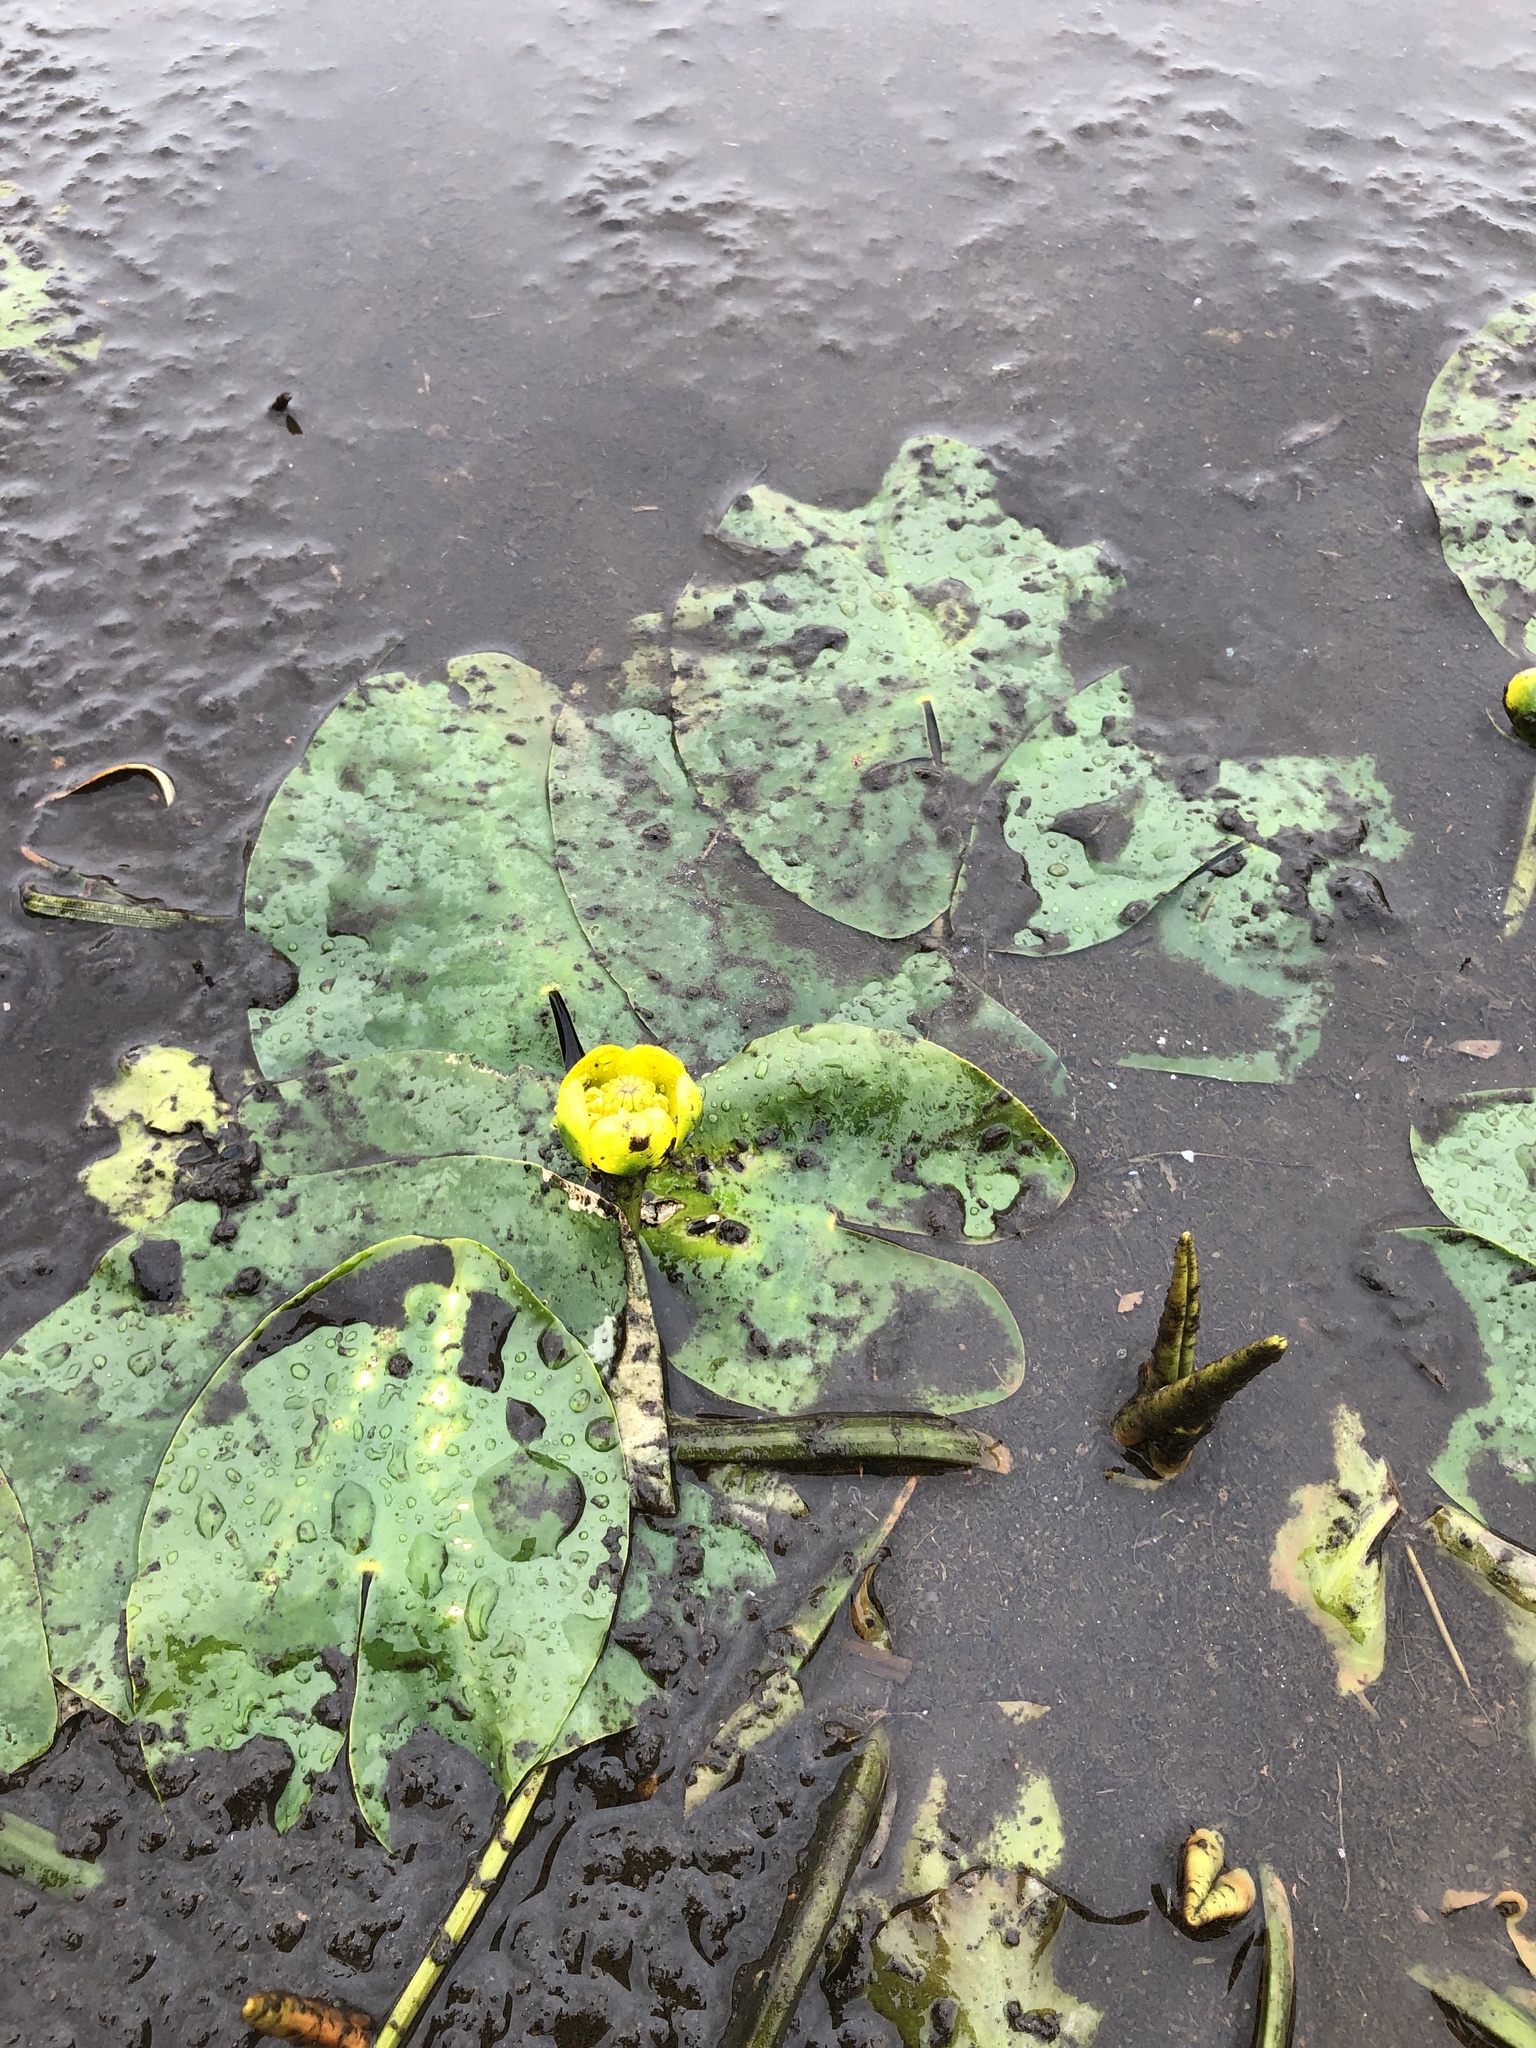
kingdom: Plantae
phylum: Tracheophyta
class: Magnoliopsida
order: Nymphaeales
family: Nymphaeaceae
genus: Nuphar
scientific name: Nuphar pumila
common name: Least water-lily
